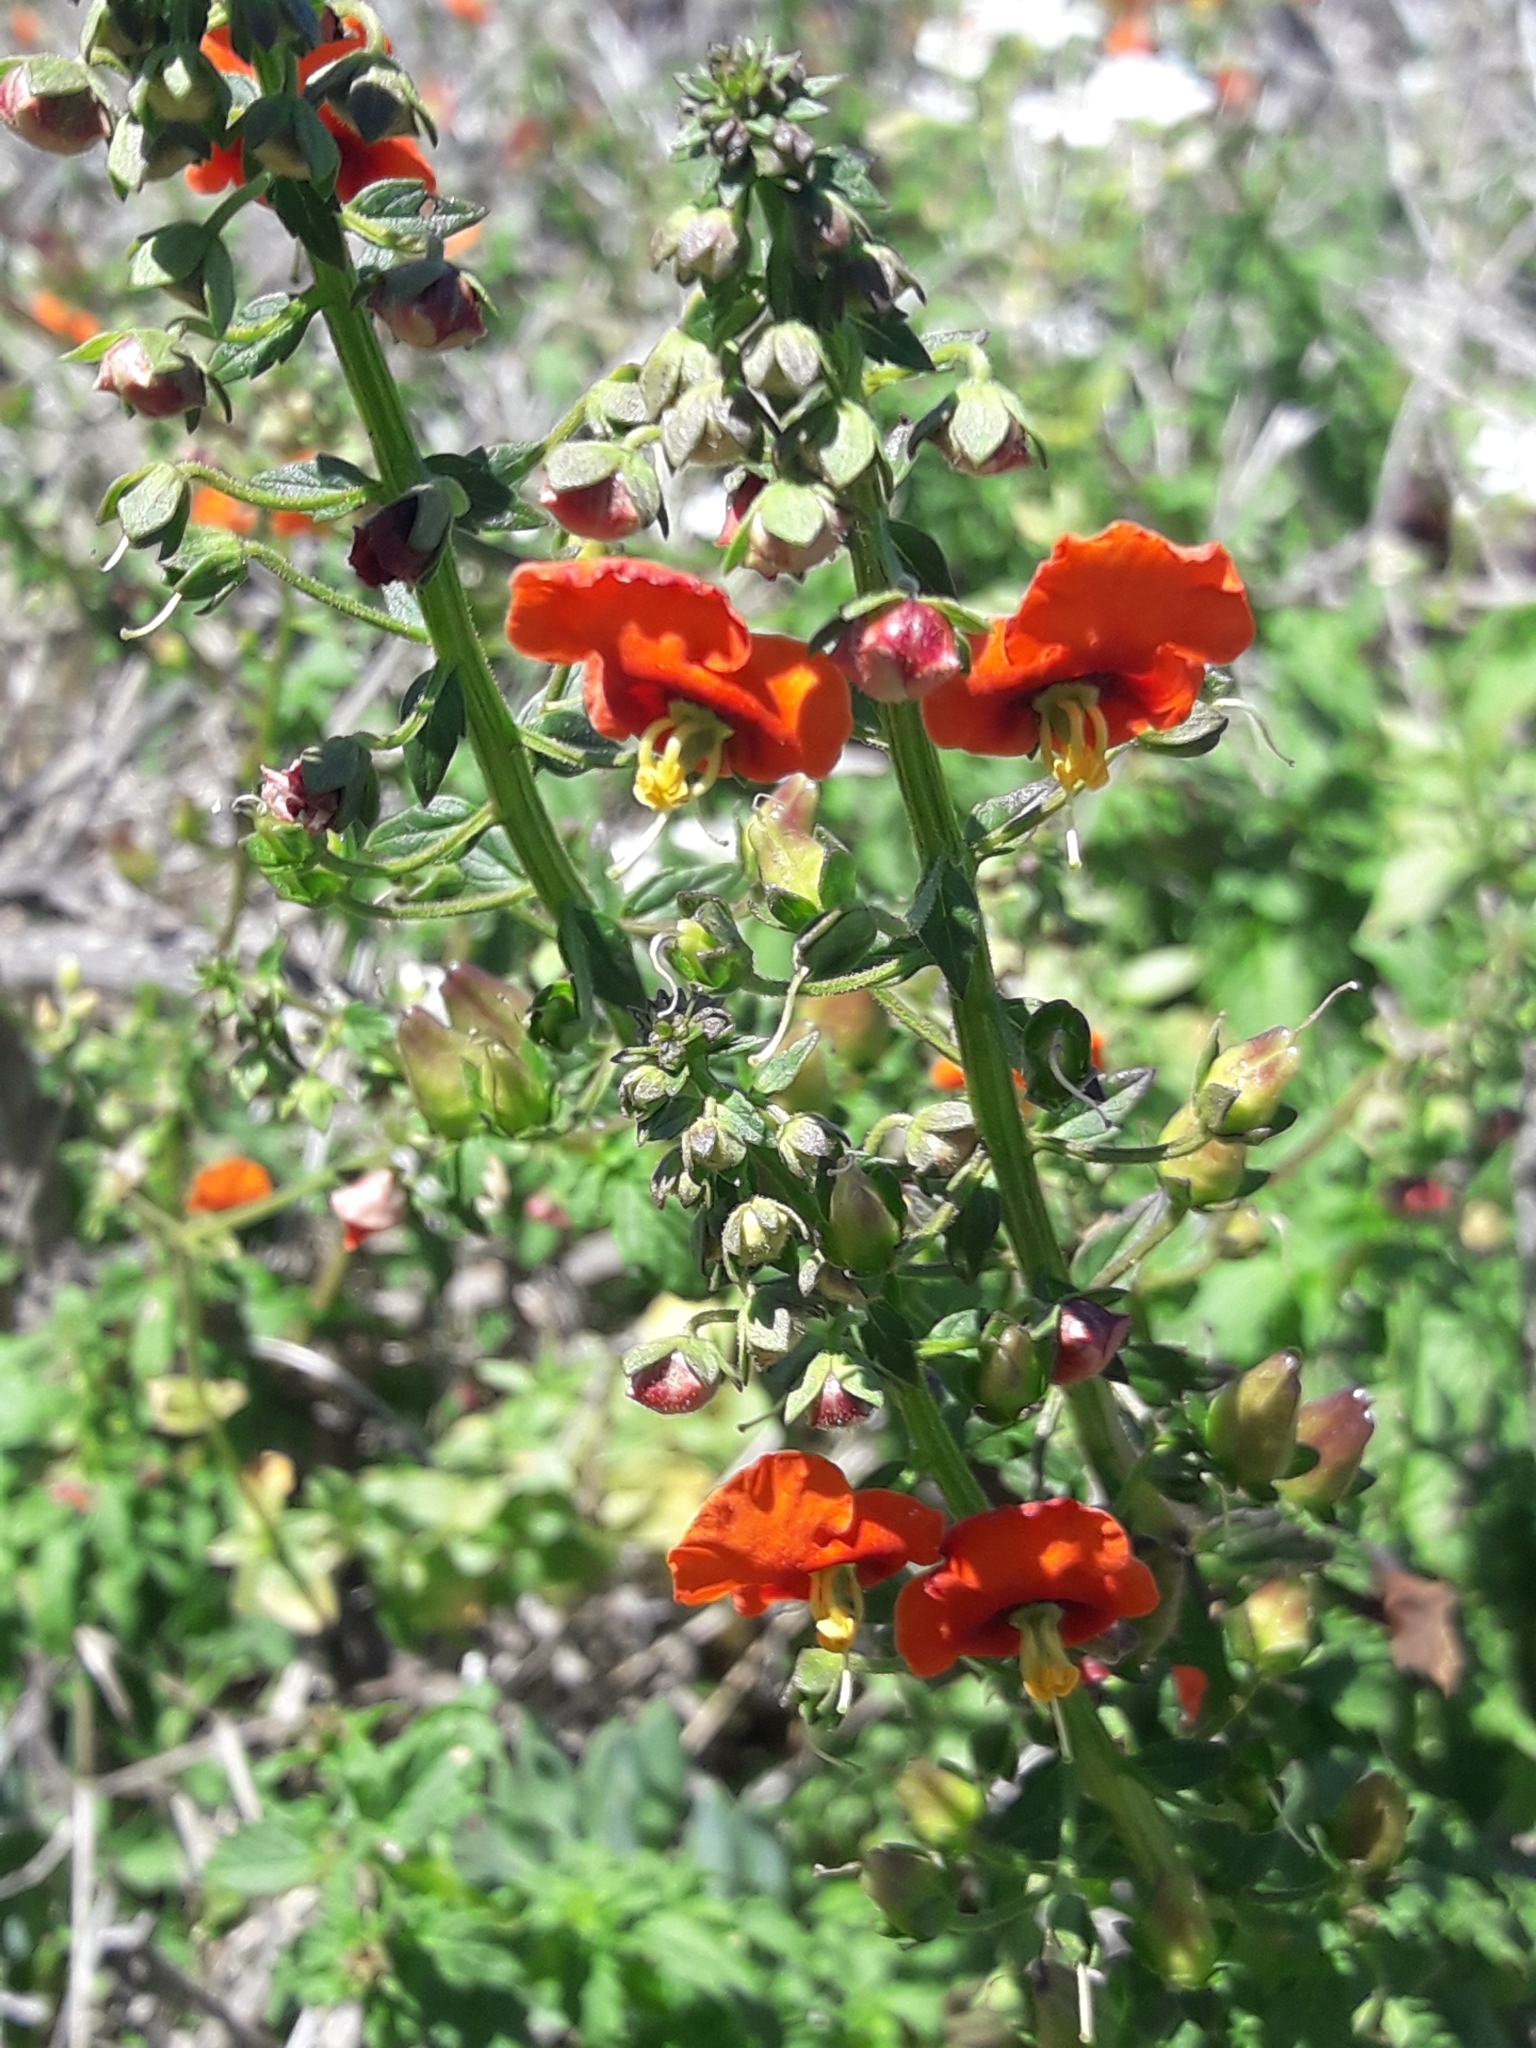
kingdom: Plantae
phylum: Tracheophyta
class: Magnoliopsida
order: Lamiales
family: Scrophulariaceae
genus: Alonsoa
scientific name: Alonsoa meridionalis
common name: Maskflower
